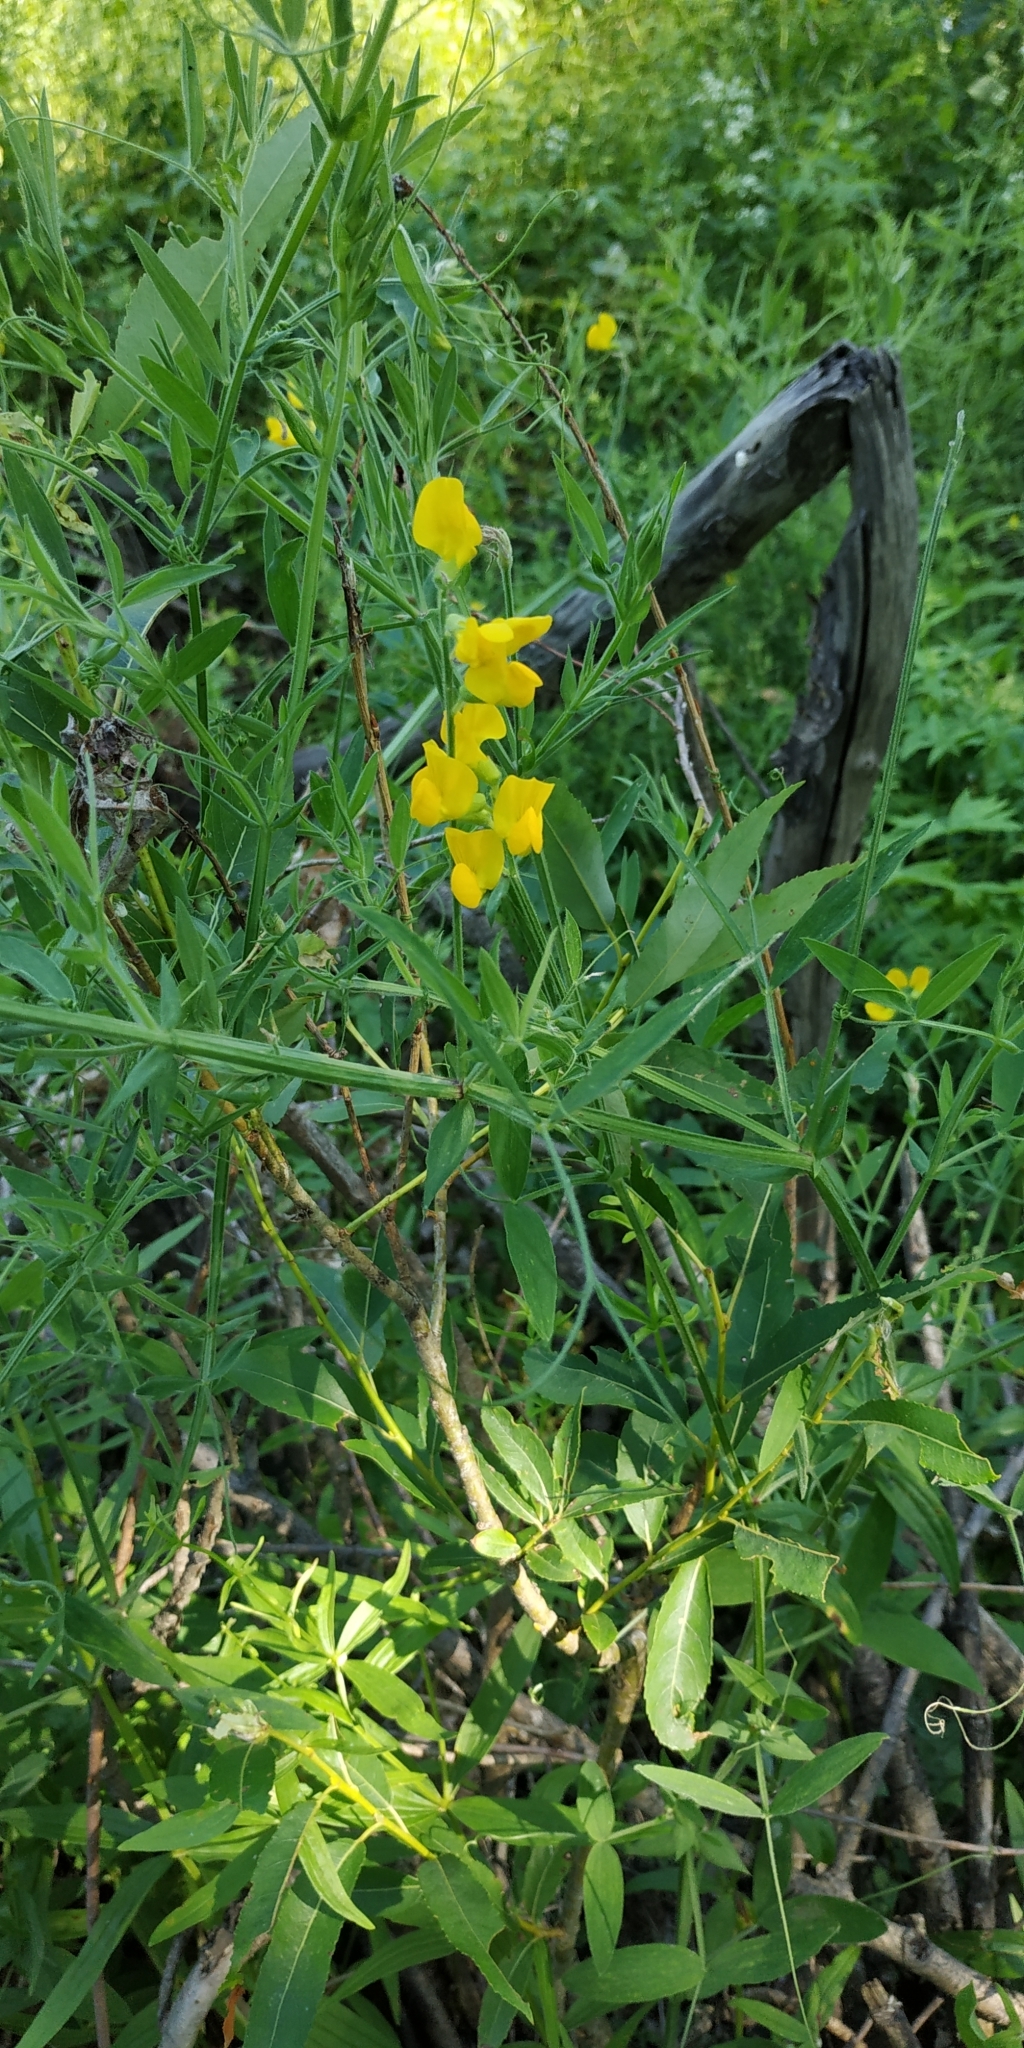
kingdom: Plantae
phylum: Tracheophyta
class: Magnoliopsida
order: Fabales
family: Fabaceae
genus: Lathyrus
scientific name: Lathyrus pratensis
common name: Meadow vetchling
